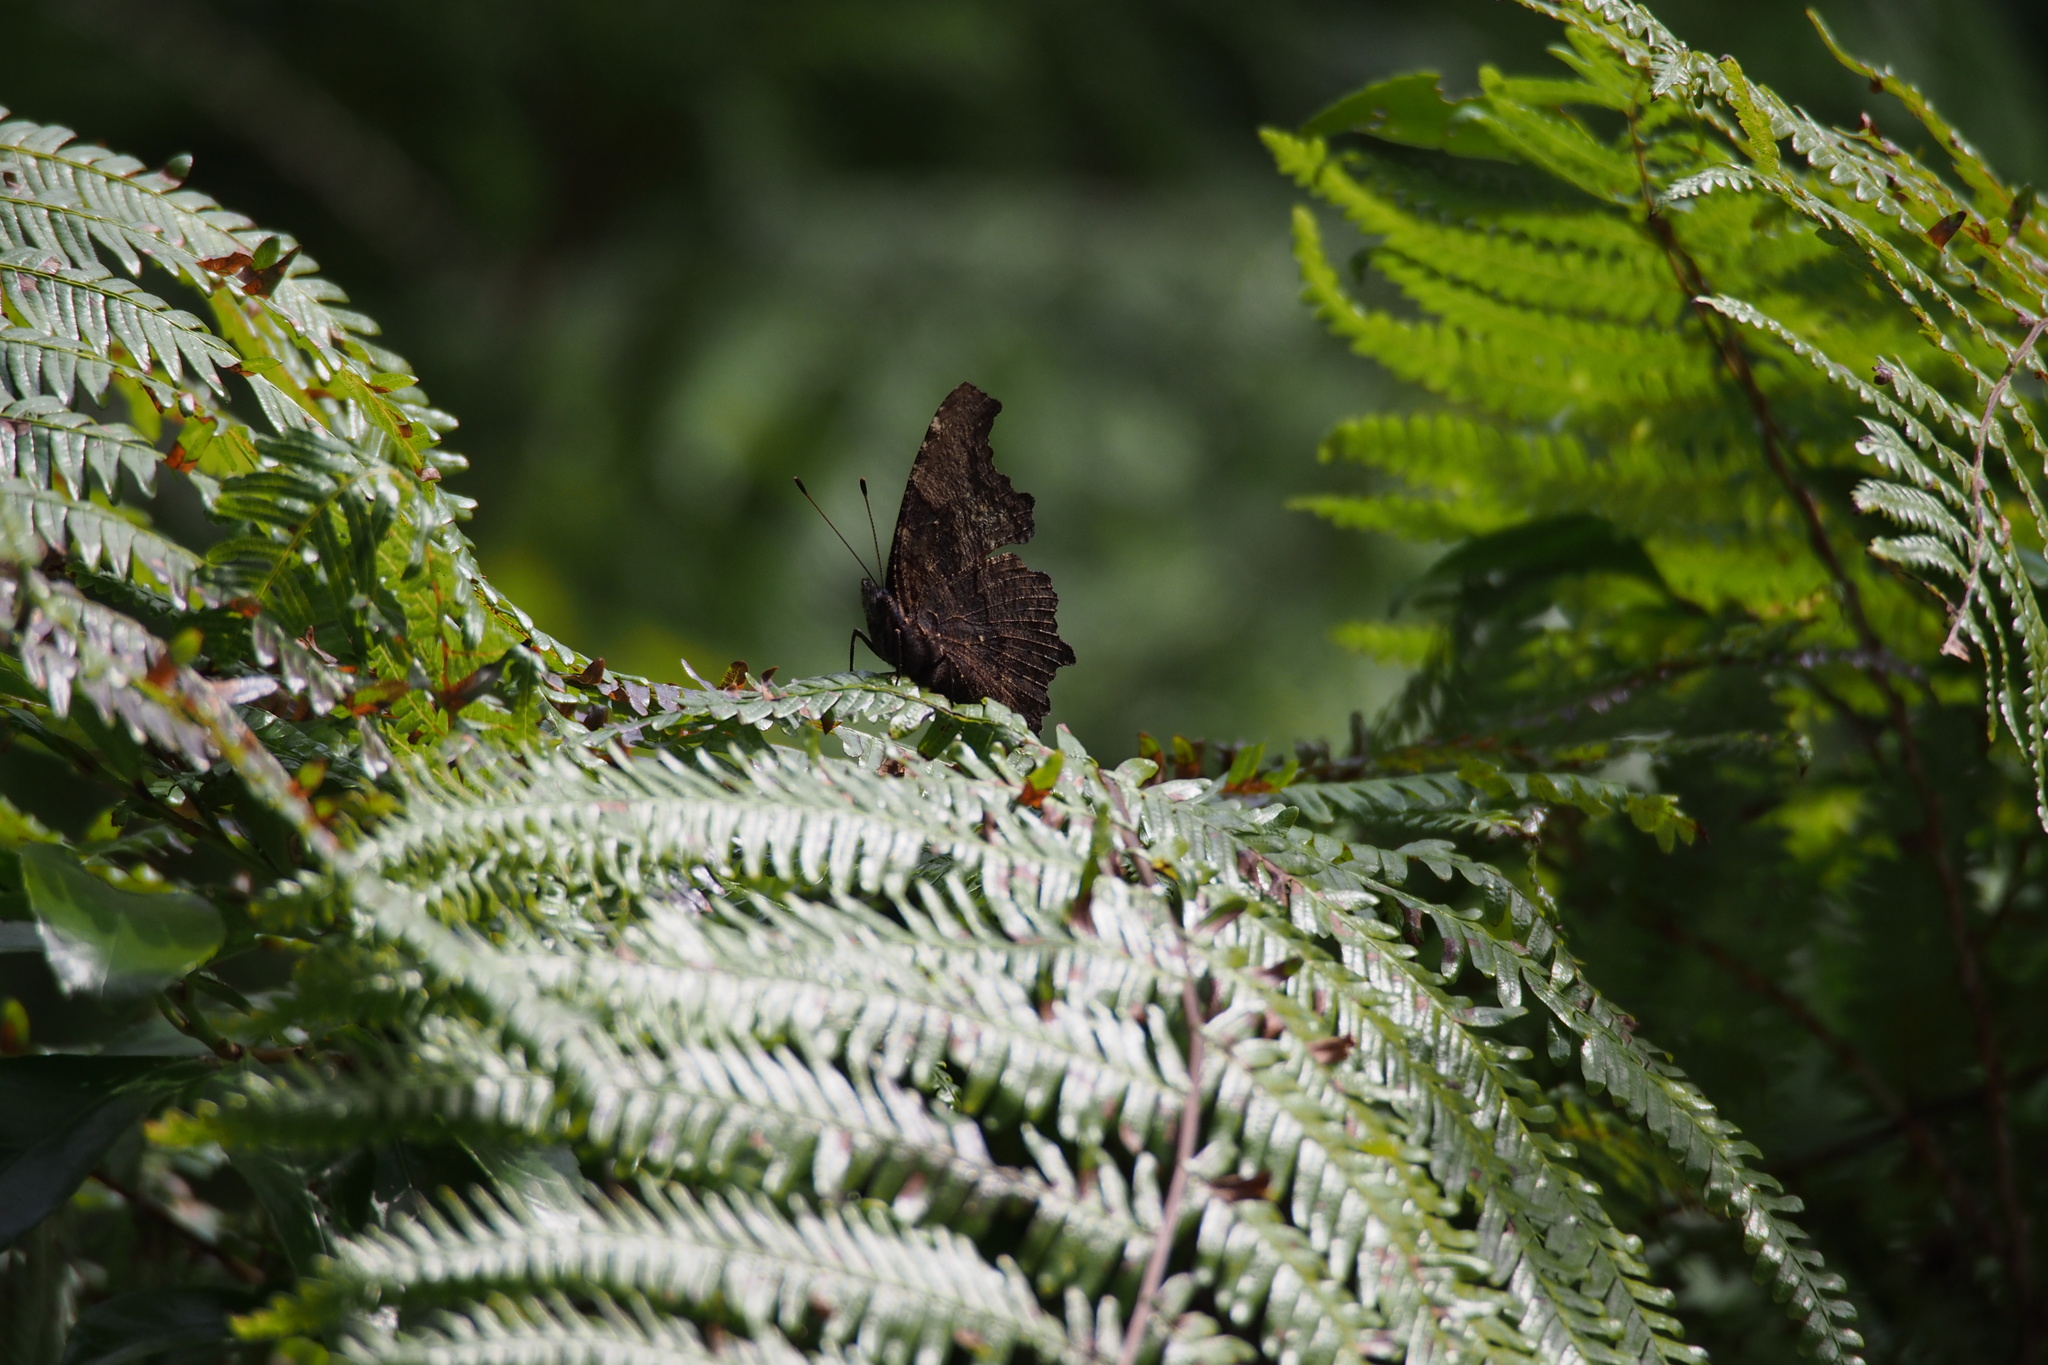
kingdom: Animalia
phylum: Arthropoda
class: Insecta
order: Lepidoptera
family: Nymphalidae
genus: Vanessa
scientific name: Vanessa Kaniska canace
